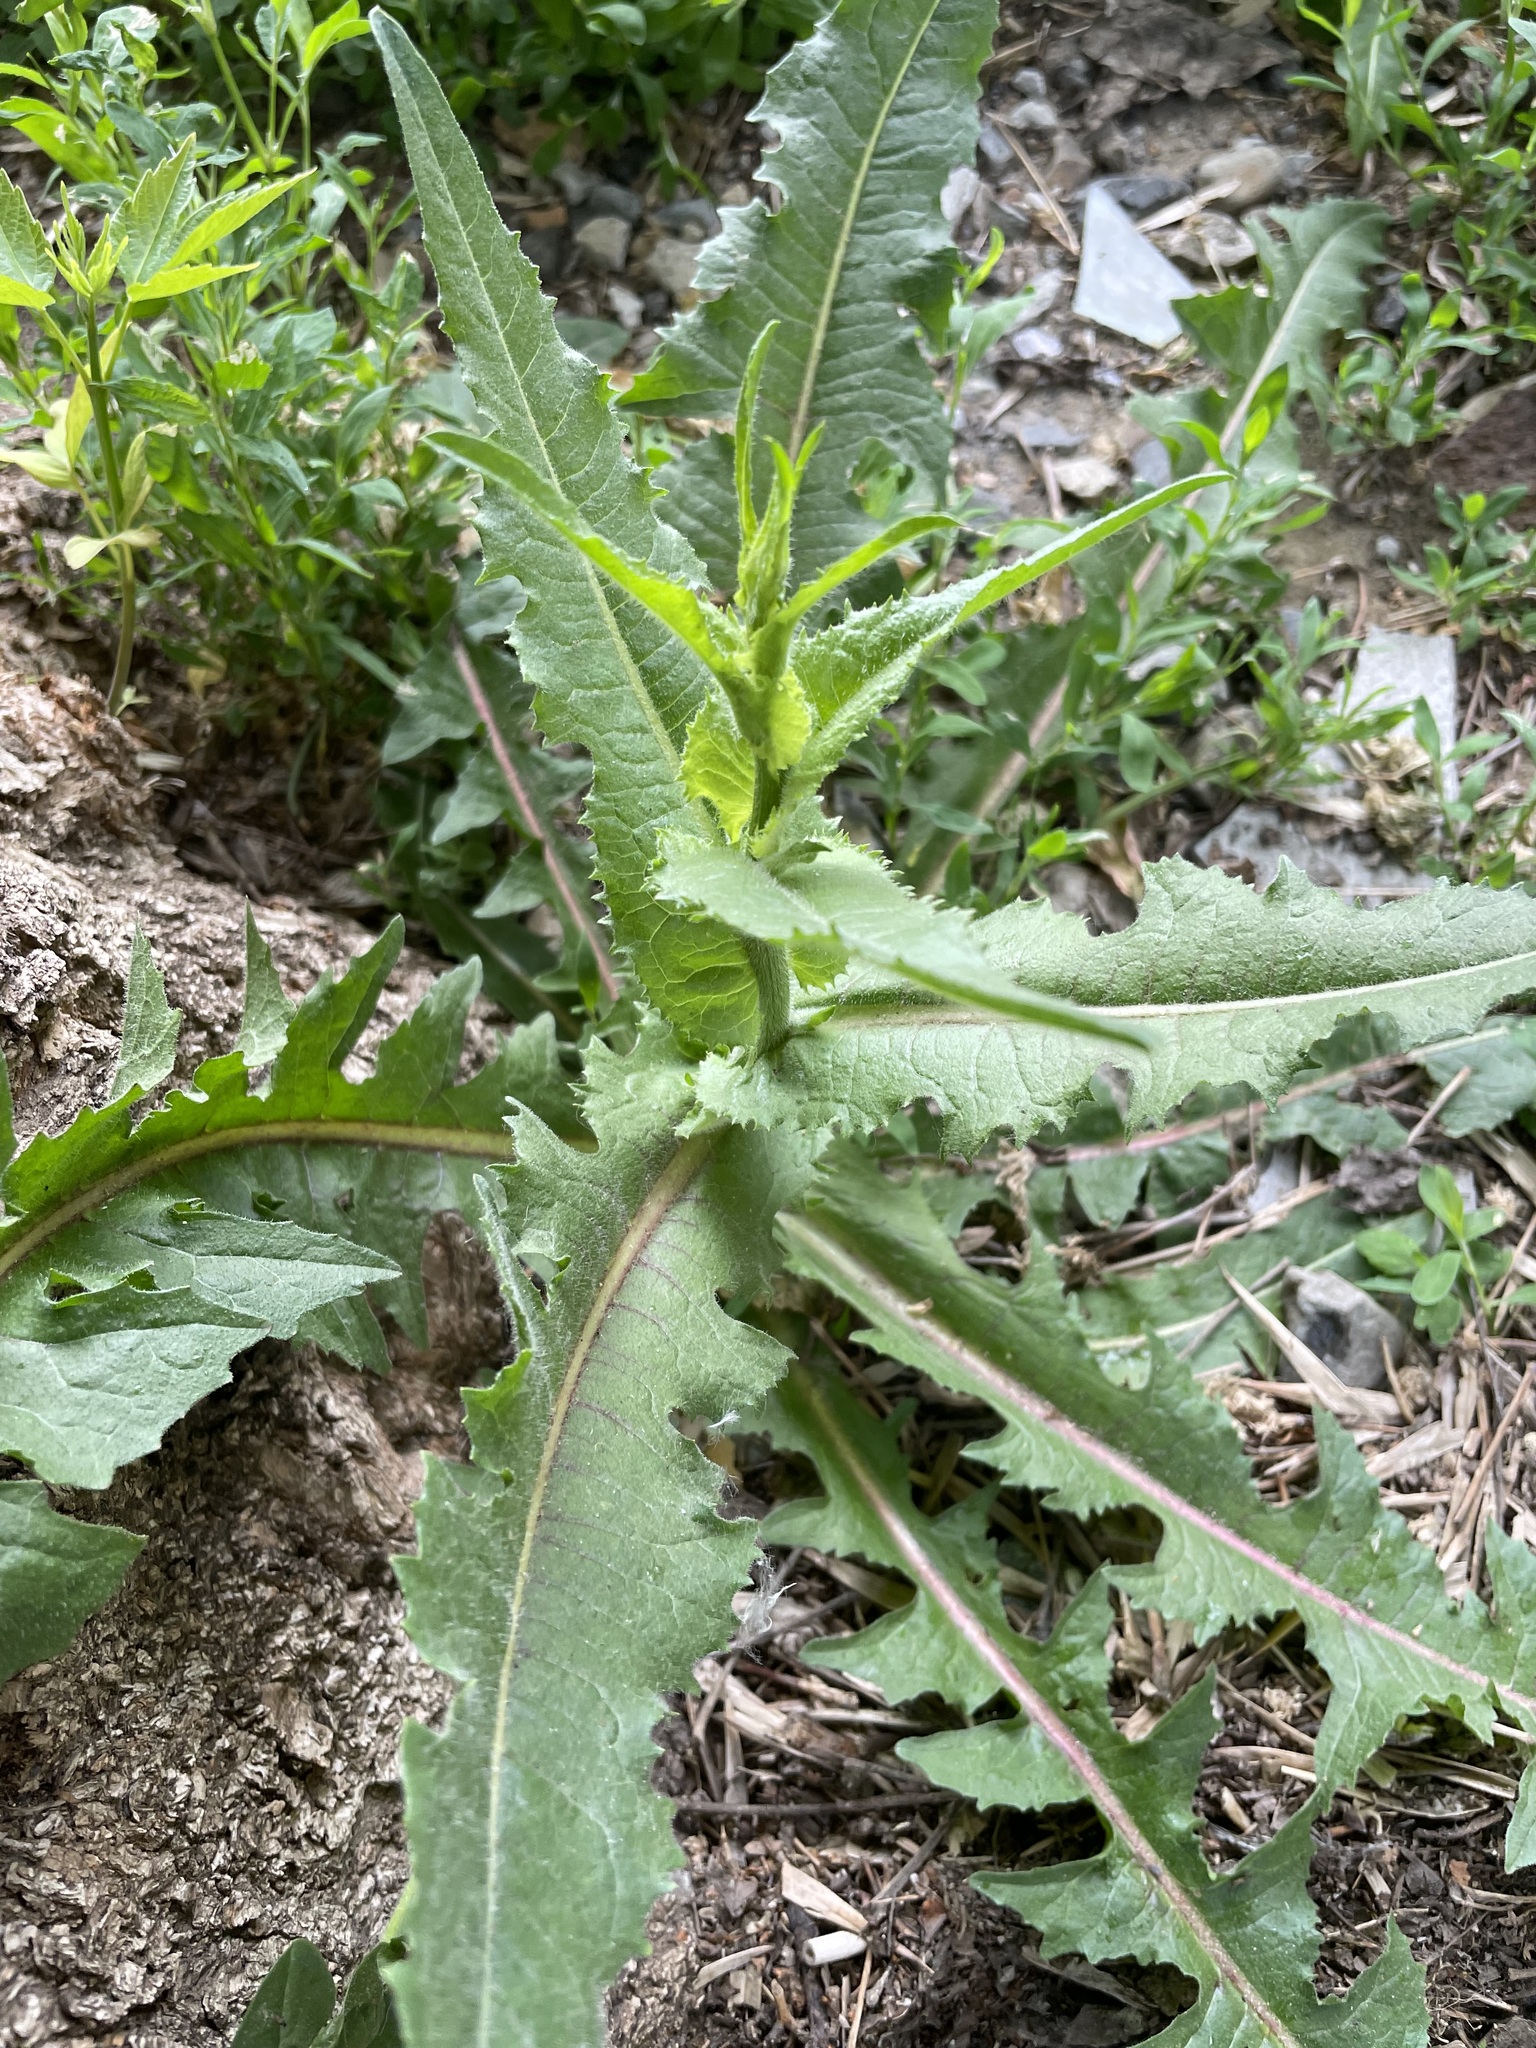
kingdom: Plantae
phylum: Tracheophyta
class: Magnoliopsida
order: Asterales
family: Asteraceae
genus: Cichorium
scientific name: Cichorium intybus
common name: Chicory
